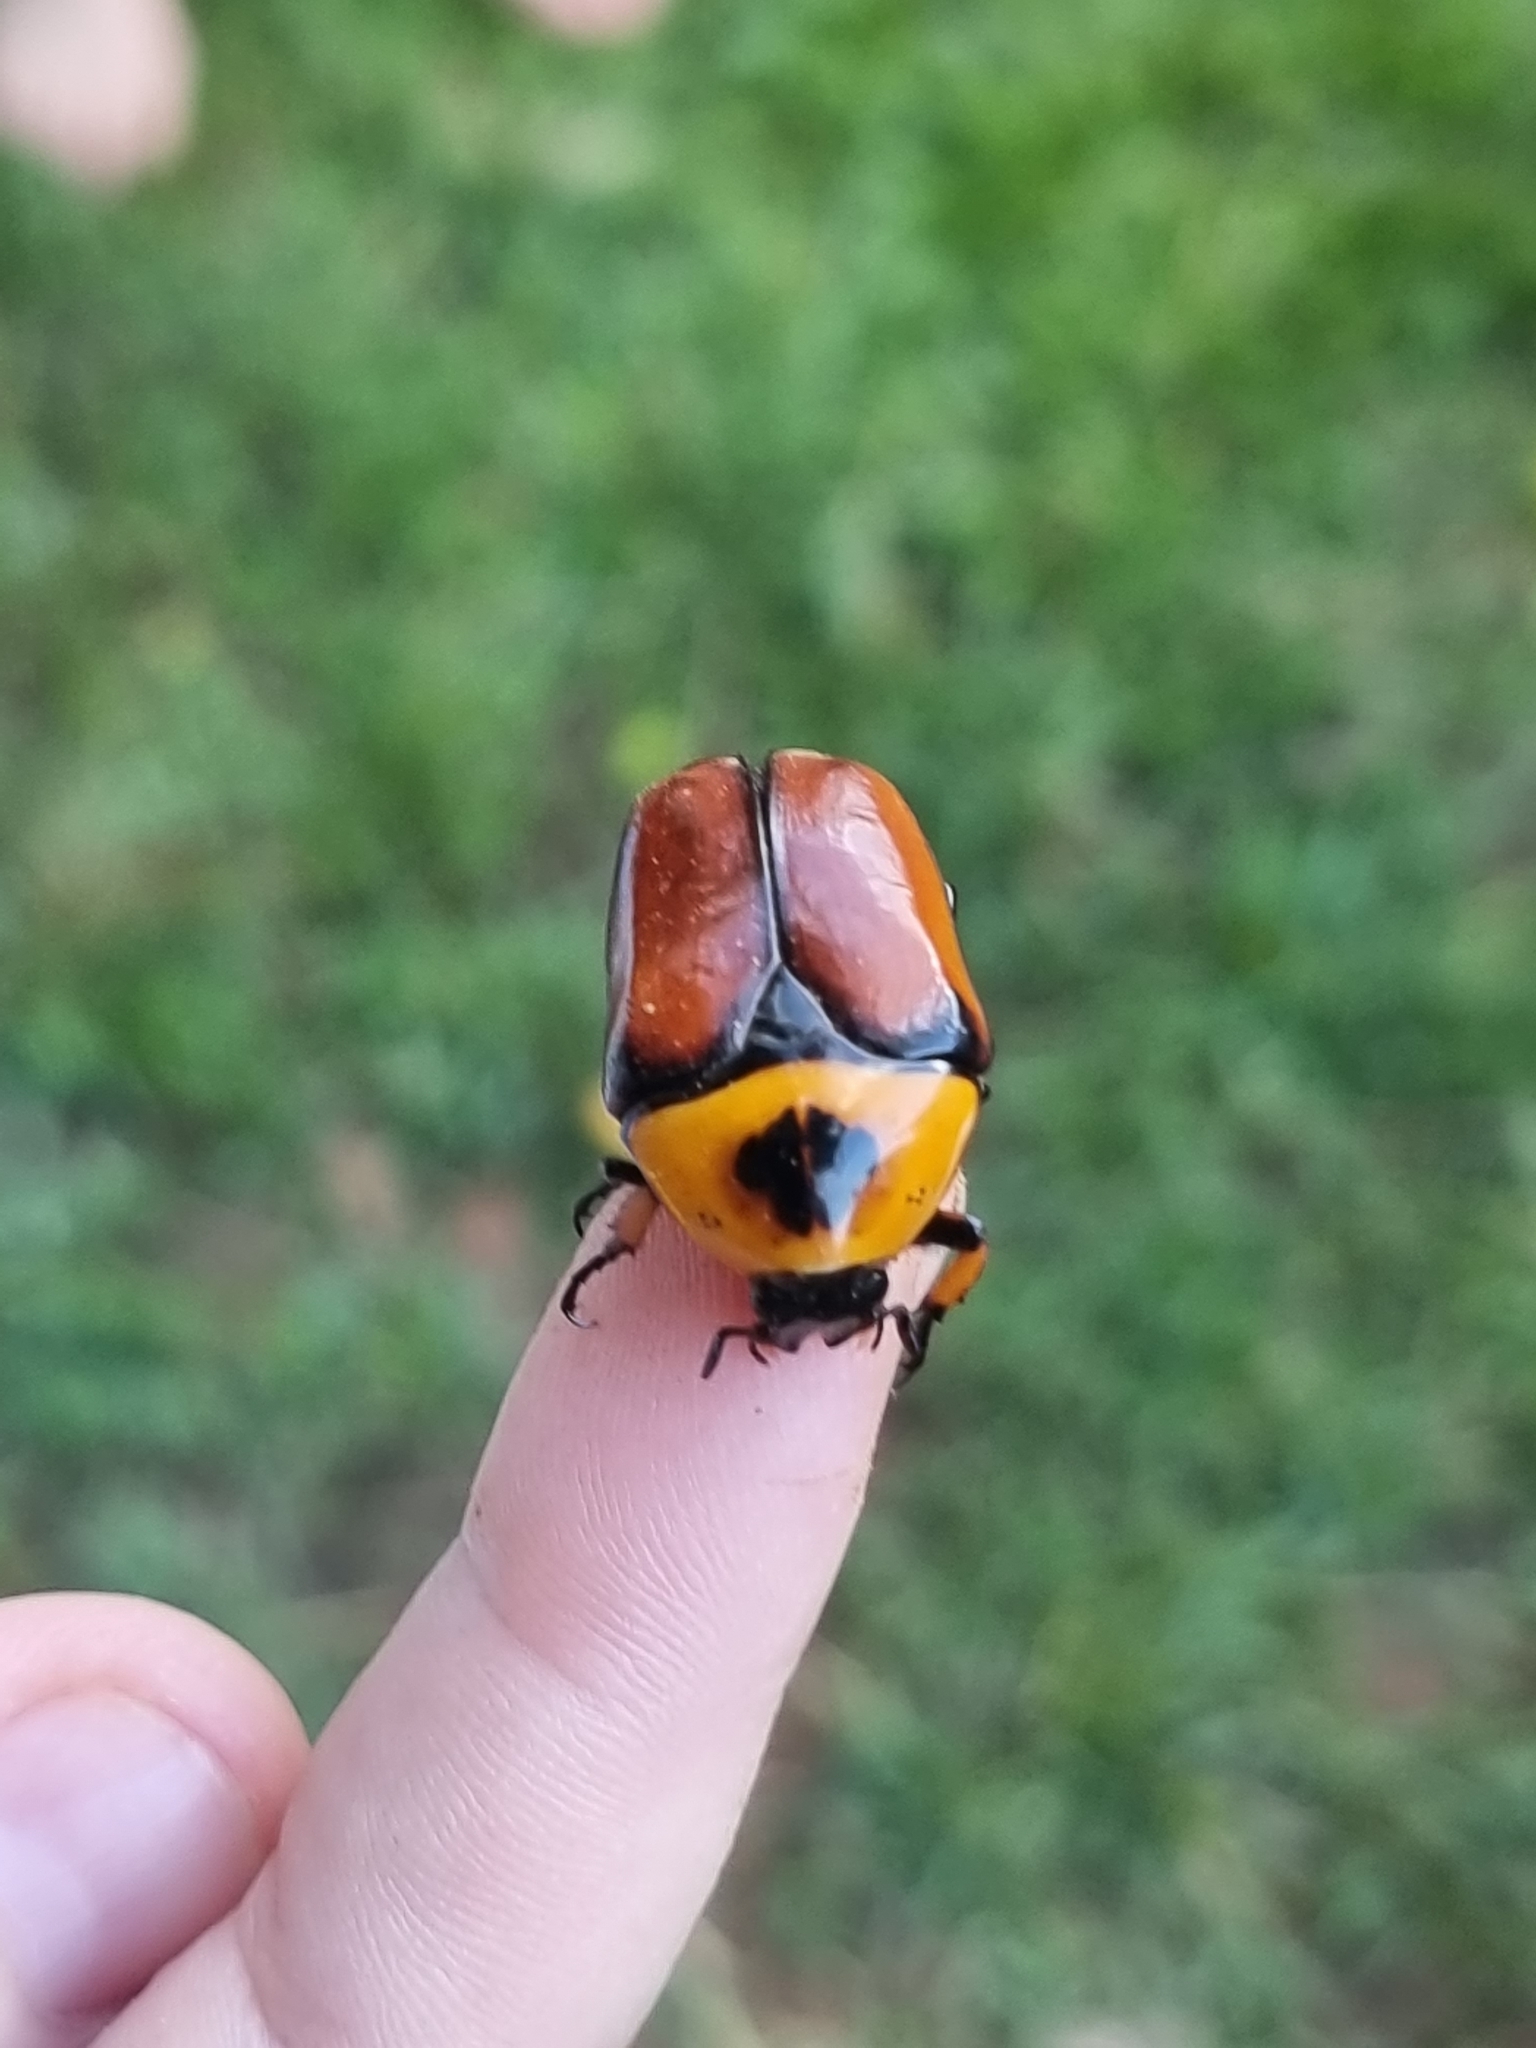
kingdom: Animalia
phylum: Arthropoda
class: Insecta
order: Coleoptera
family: Scarabaeidae
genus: Dilochrosis
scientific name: Dilochrosis brownii
